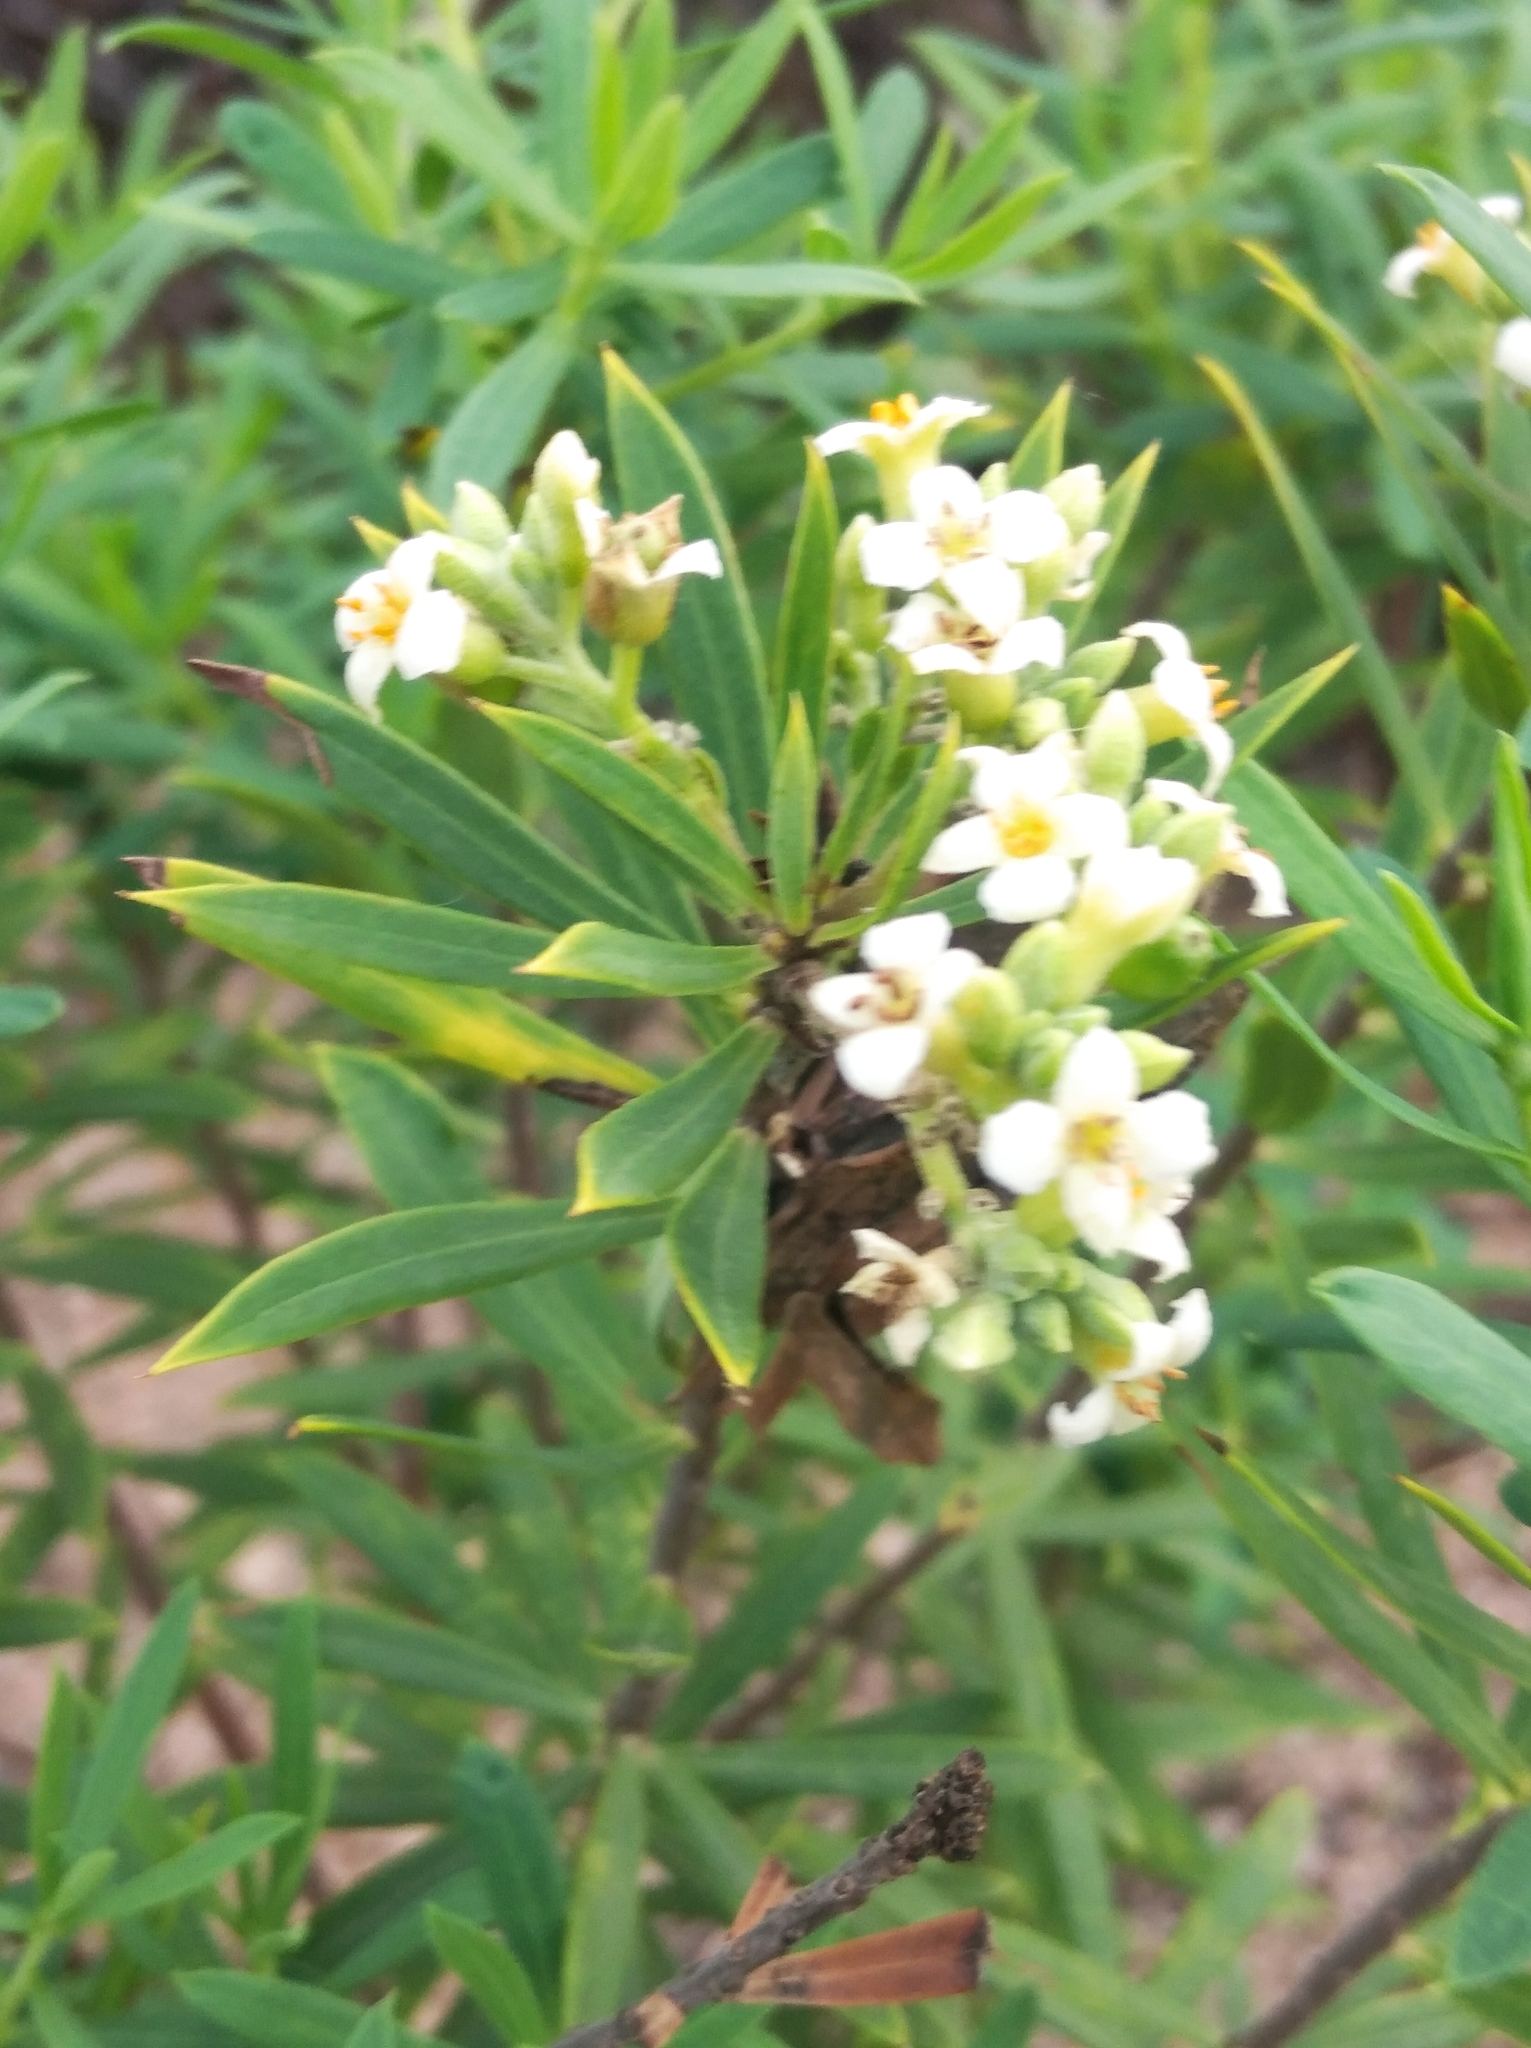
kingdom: Plantae
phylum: Tracheophyta
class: Magnoliopsida
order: Malvales
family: Thymelaeaceae
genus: Daphne
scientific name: Daphne gnidium
